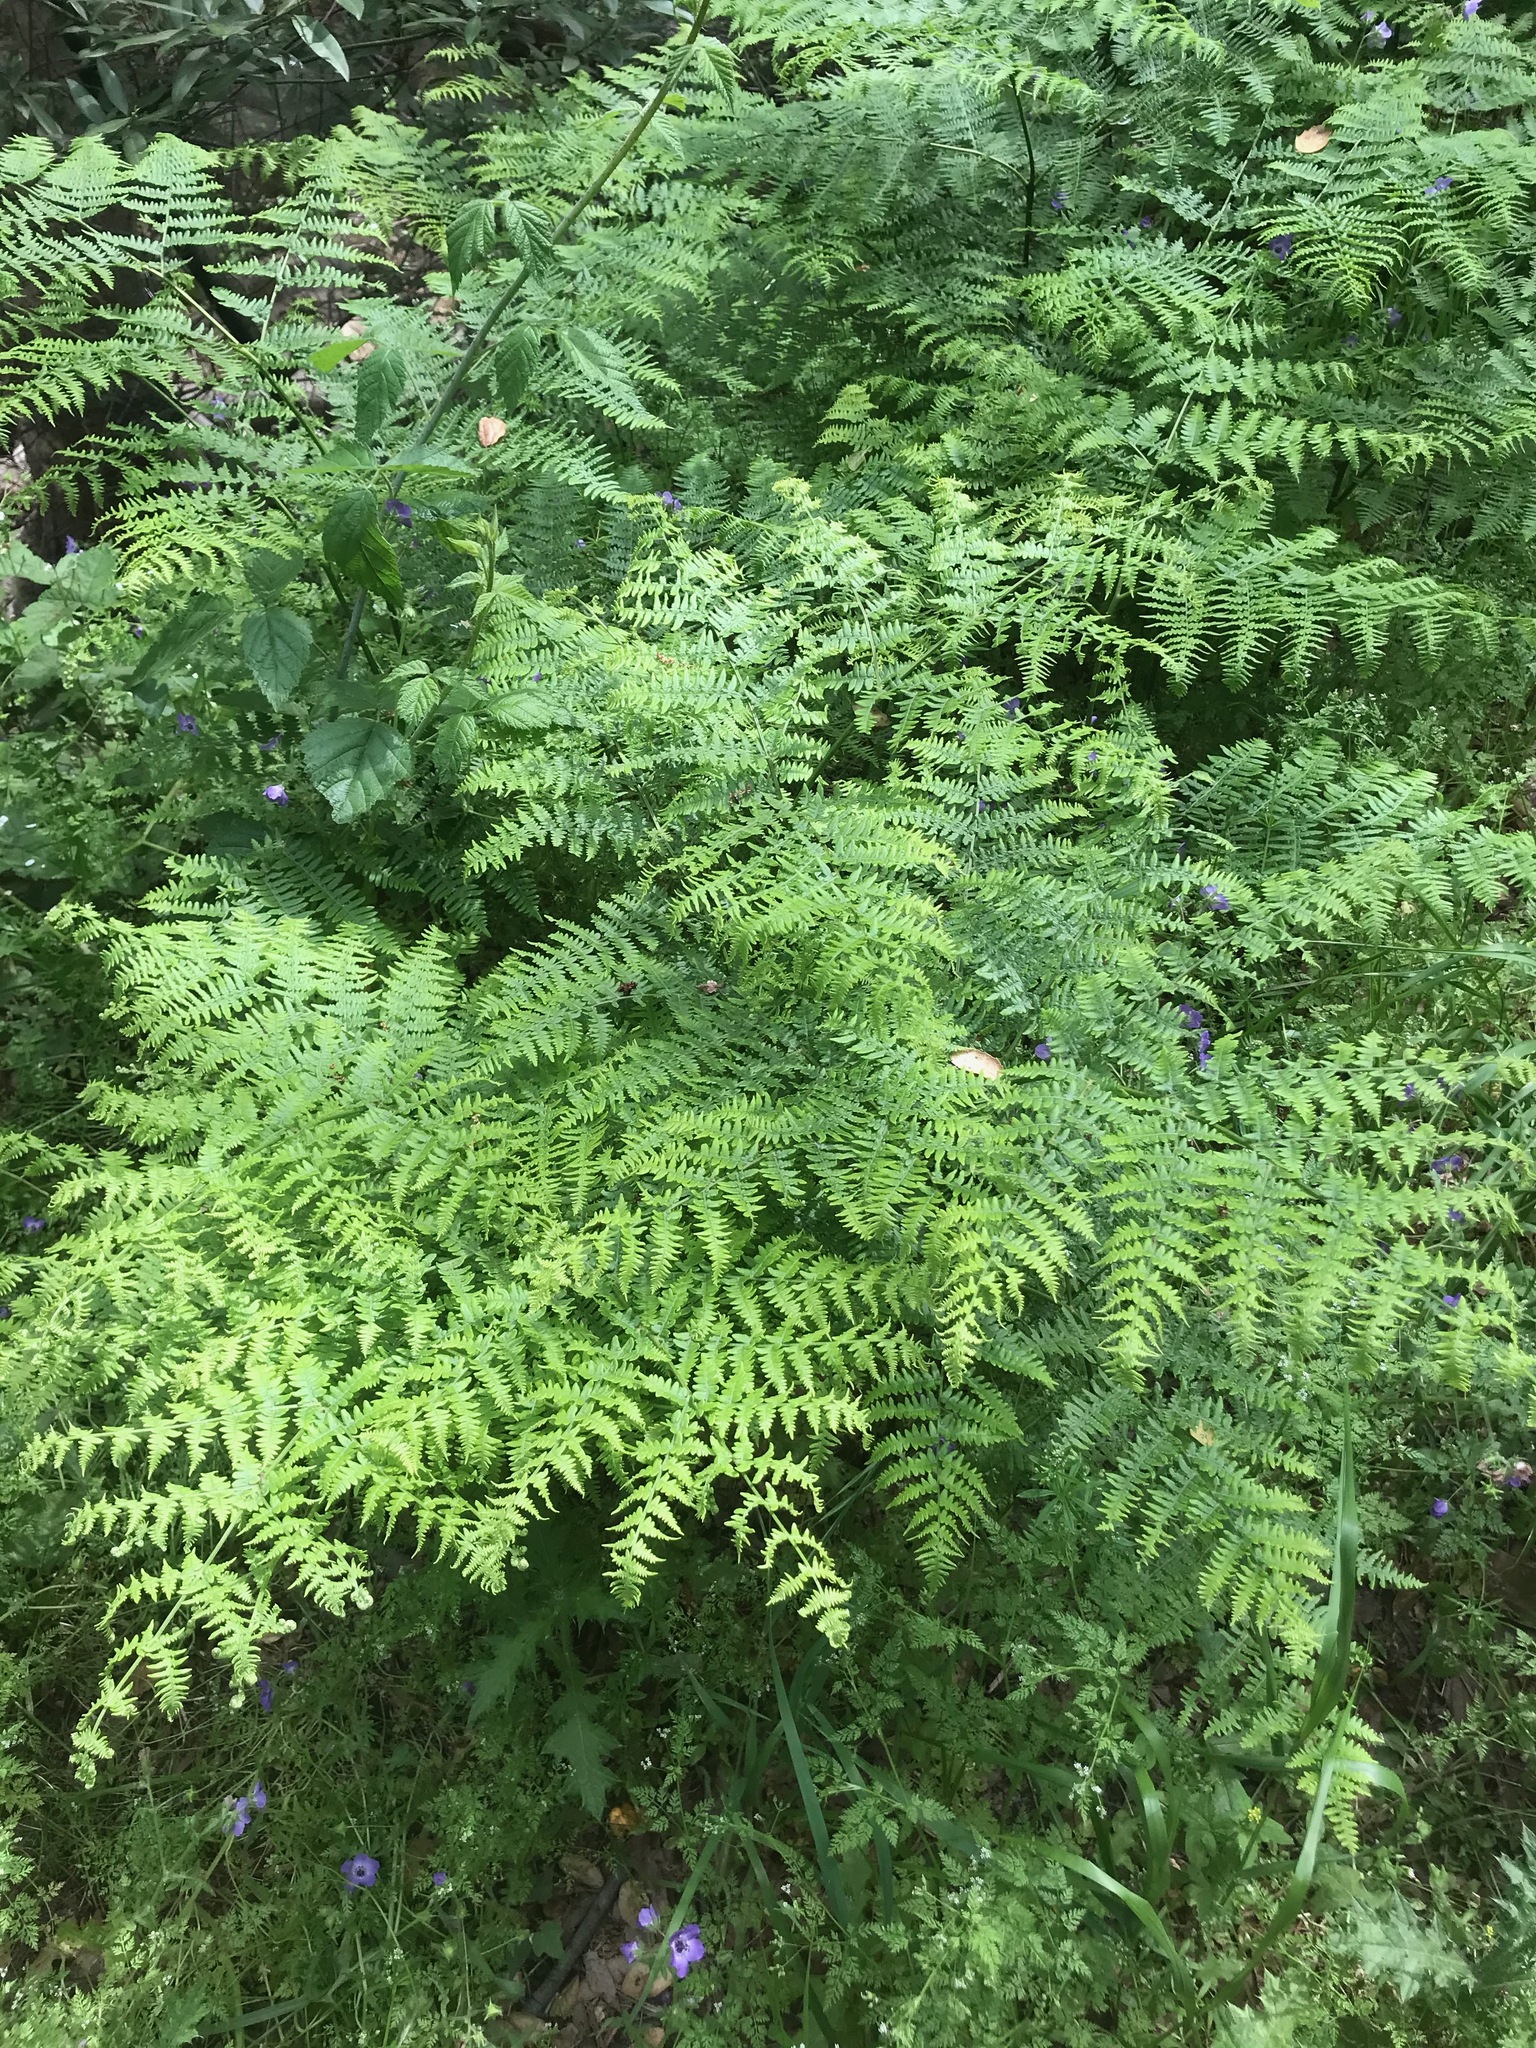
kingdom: Plantae
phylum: Tracheophyta
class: Polypodiopsida
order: Polypodiales
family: Dennstaedtiaceae
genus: Pteridium
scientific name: Pteridium aquilinum
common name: Bracken
